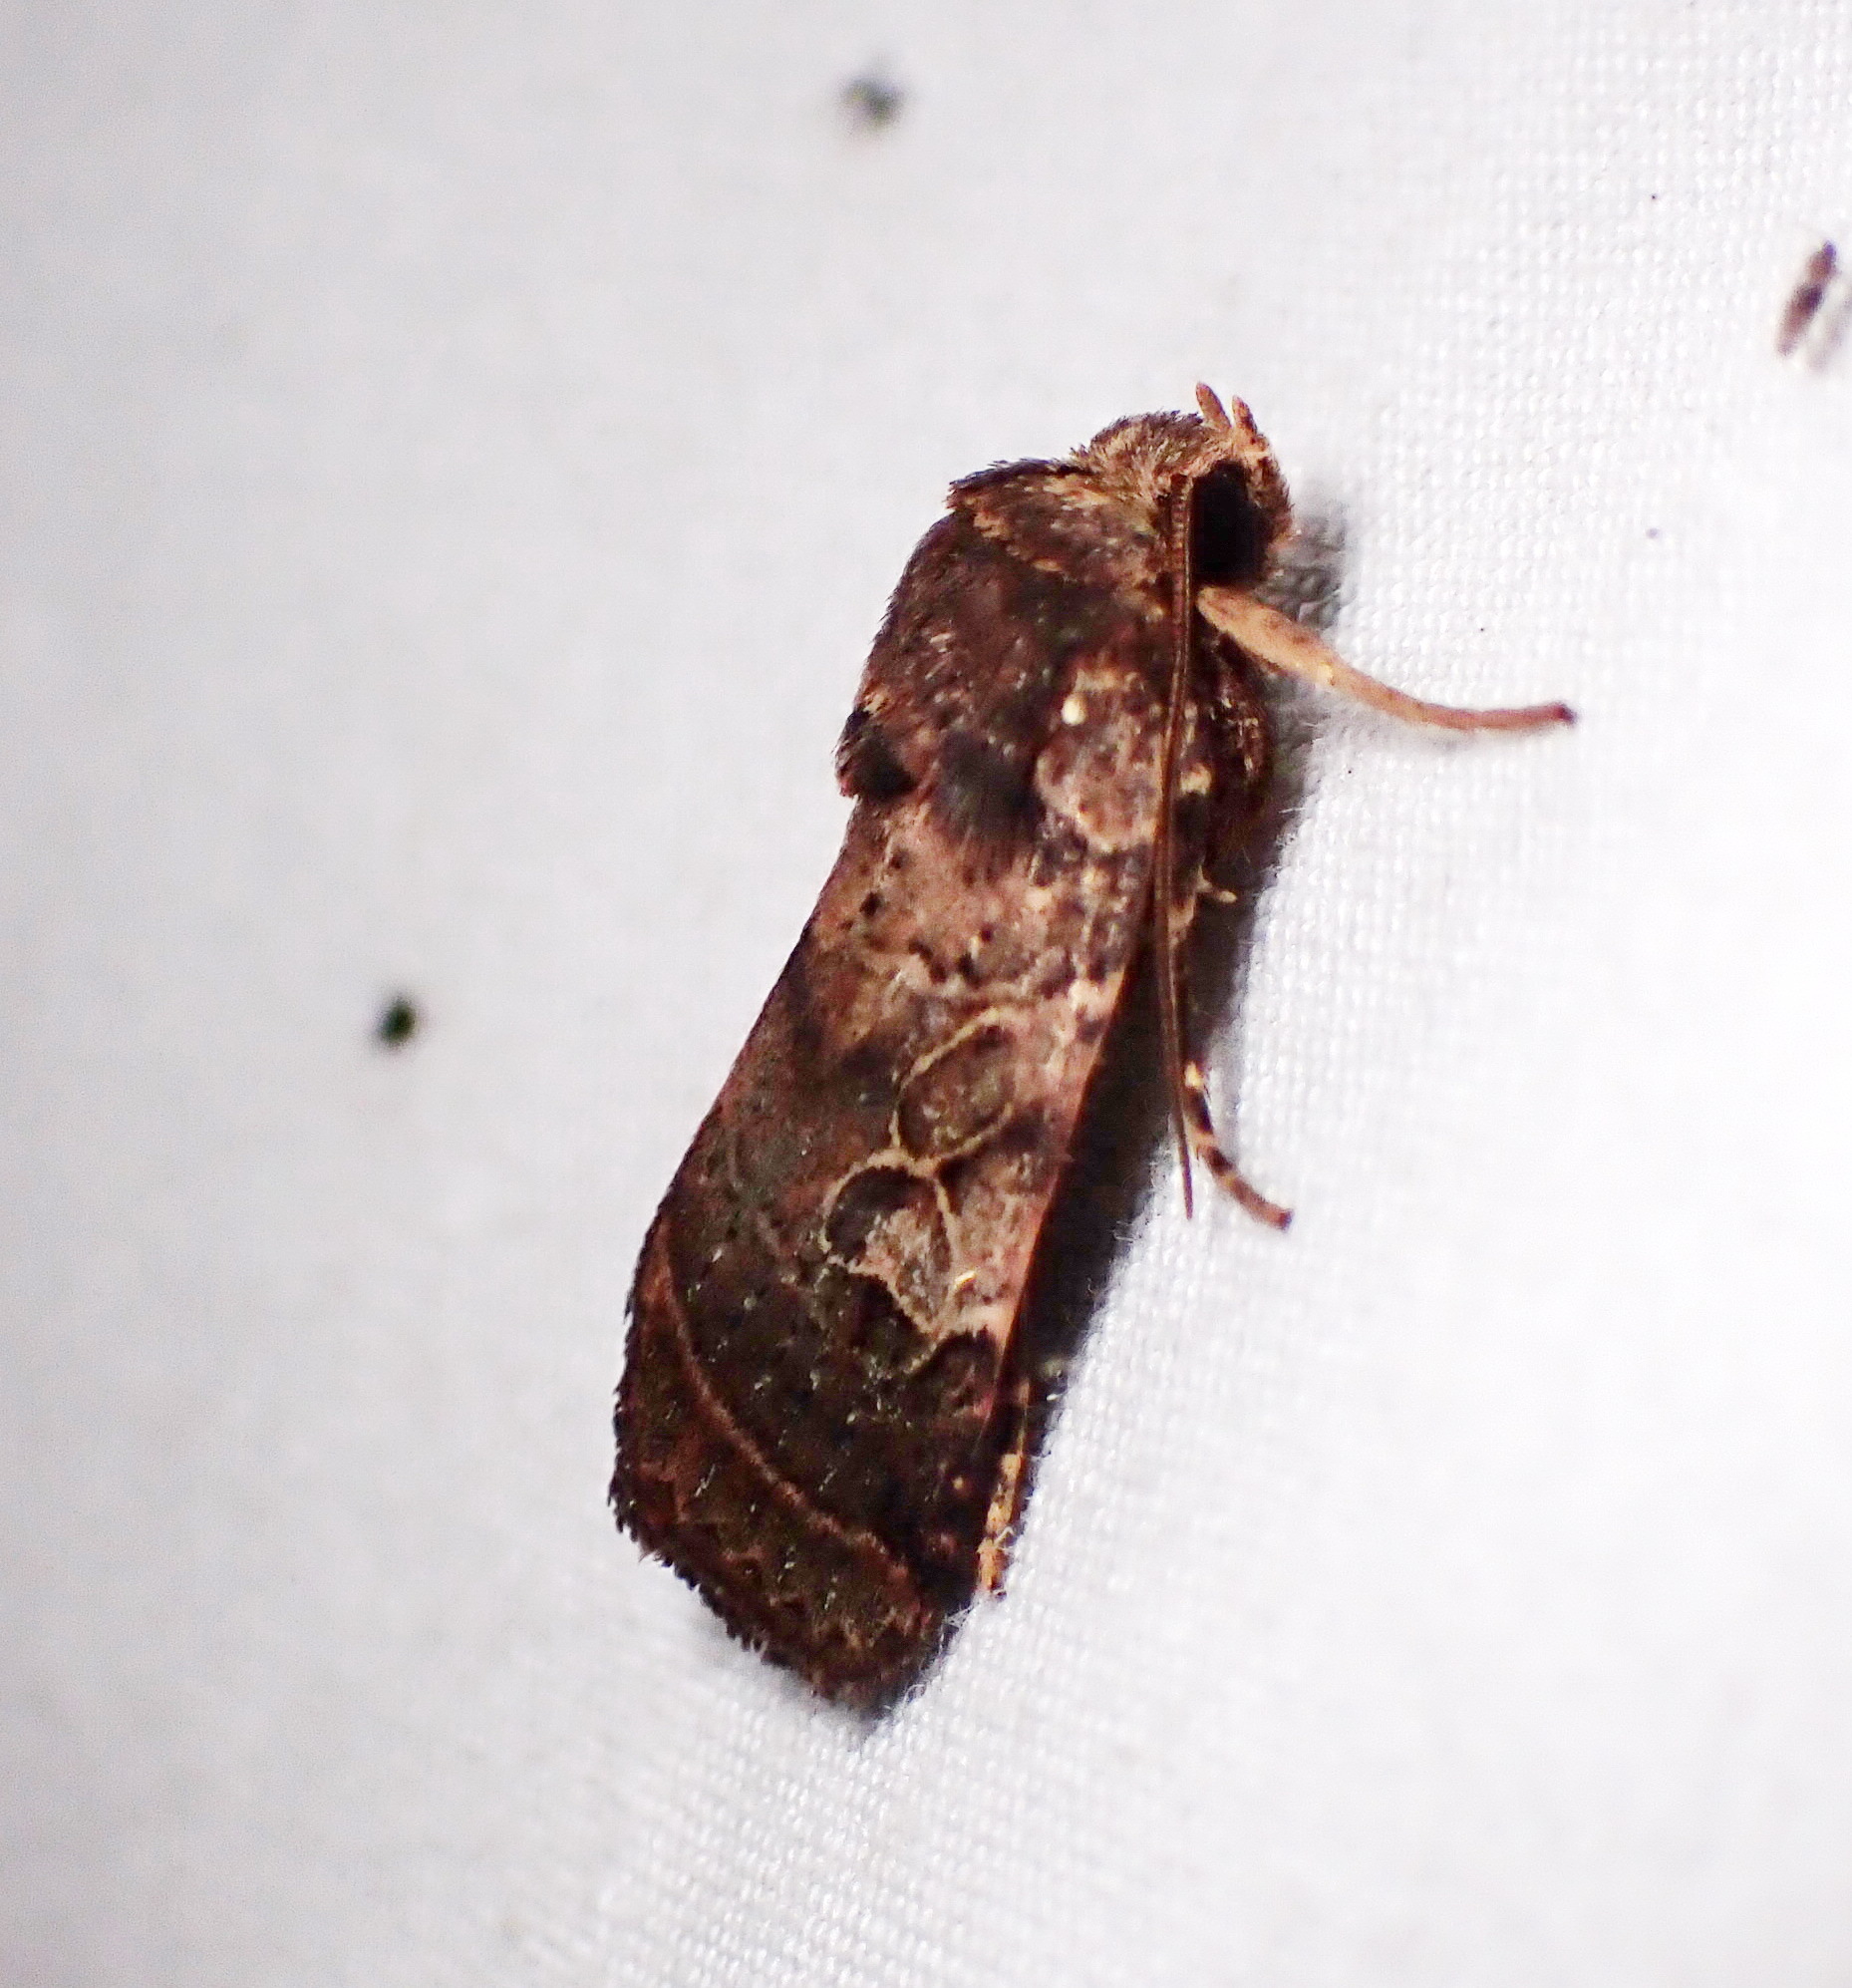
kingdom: Animalia
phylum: Arthropoda
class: Insecta
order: Lepidoptera
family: Noctuidae
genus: Orthodes
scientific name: Orthodes furtiva
